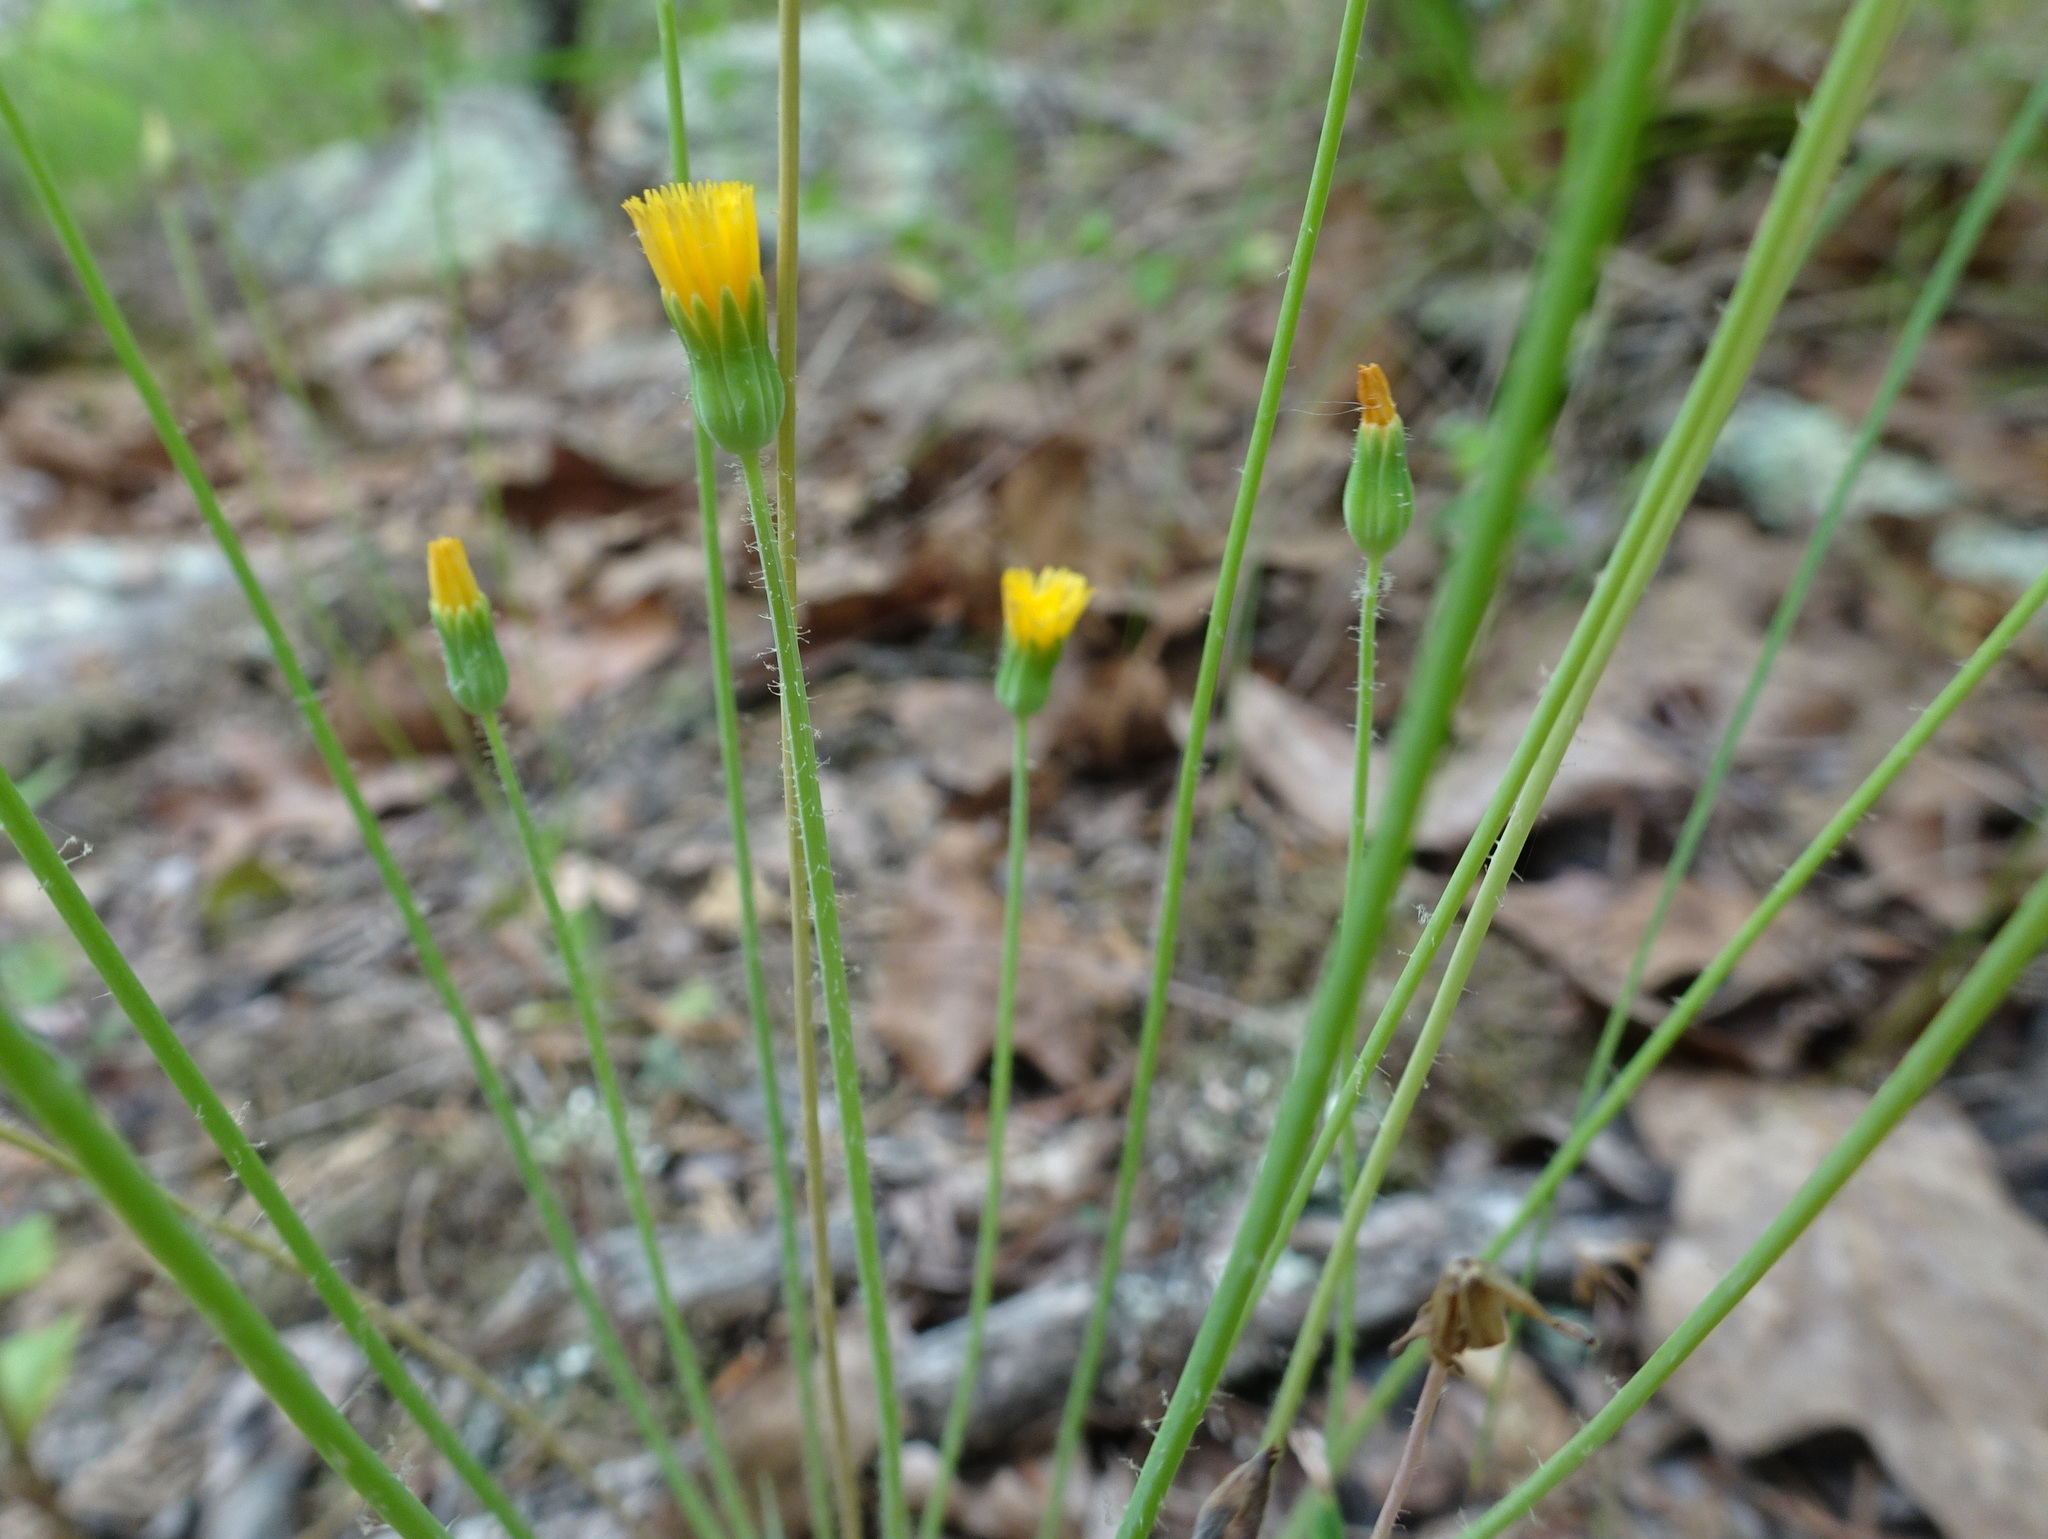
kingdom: Plantae
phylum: Tracheophyta
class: Magnoliopsida
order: Asterales
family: Asteraceae
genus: Krigia
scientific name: Krigia virginica
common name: Virginia dwarf-dandelion
